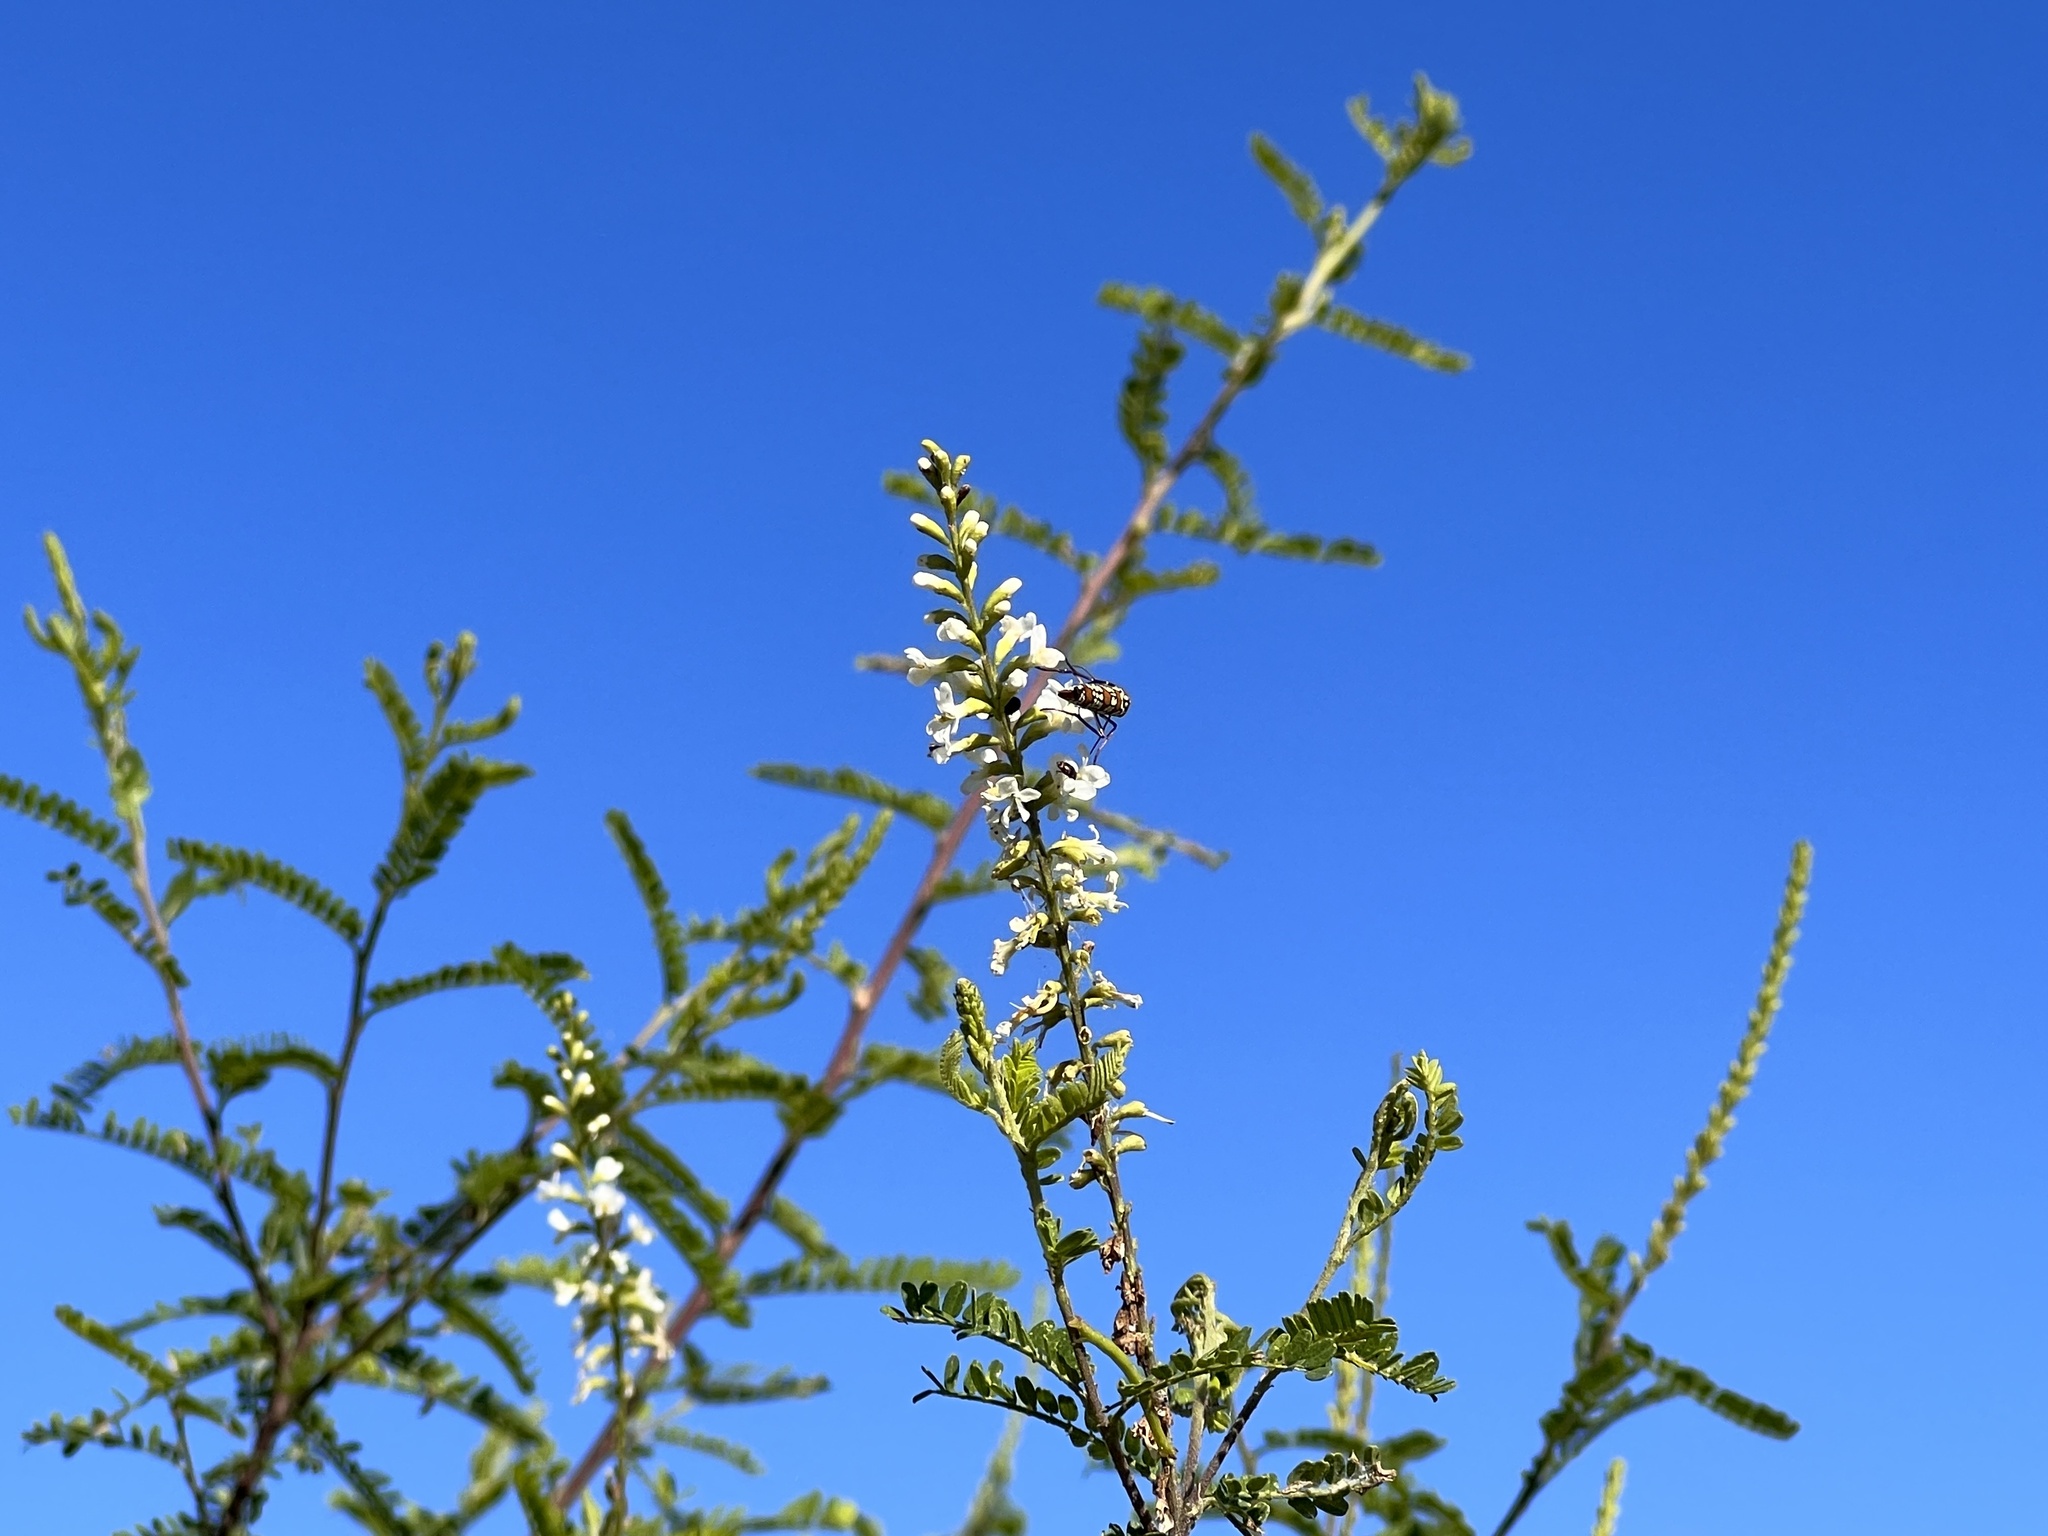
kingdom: Plantae
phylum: Tracheophyta
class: Magnoliopsida
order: Fabales
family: Fabaceae
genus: Eysenhardtia
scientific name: Eysenhardtia texana
